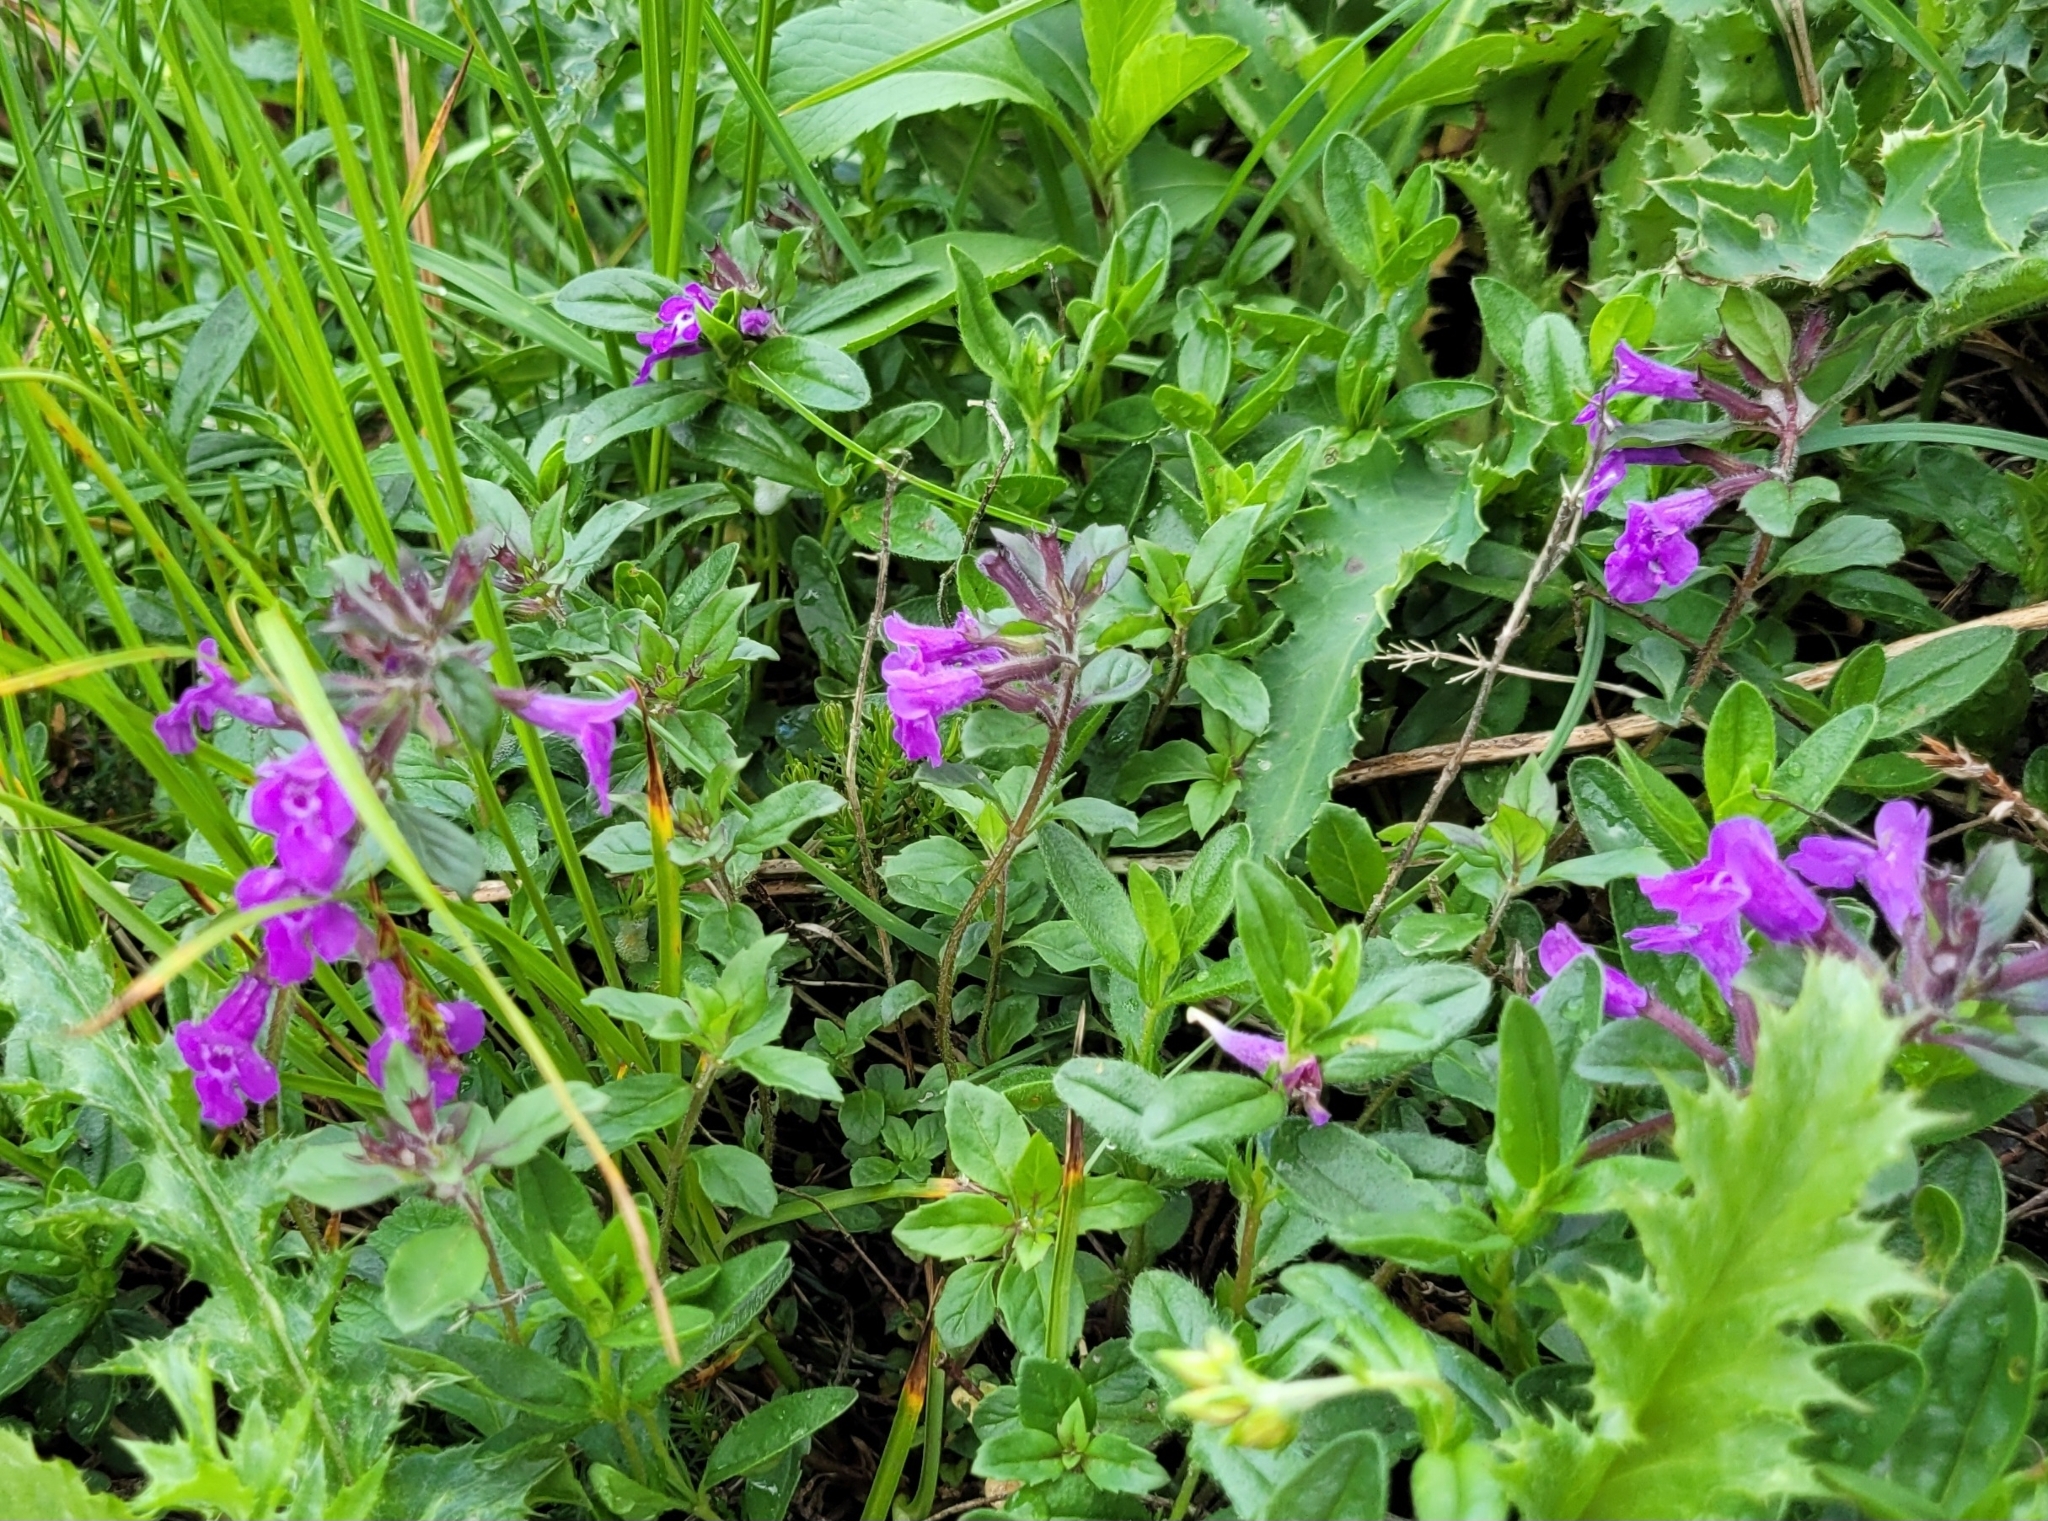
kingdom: Plantae
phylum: Tracheophyta
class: Magnoliopsida
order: Lamiales
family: Lamiaceae
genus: Clinopodium
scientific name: Clinopodium alpinum
